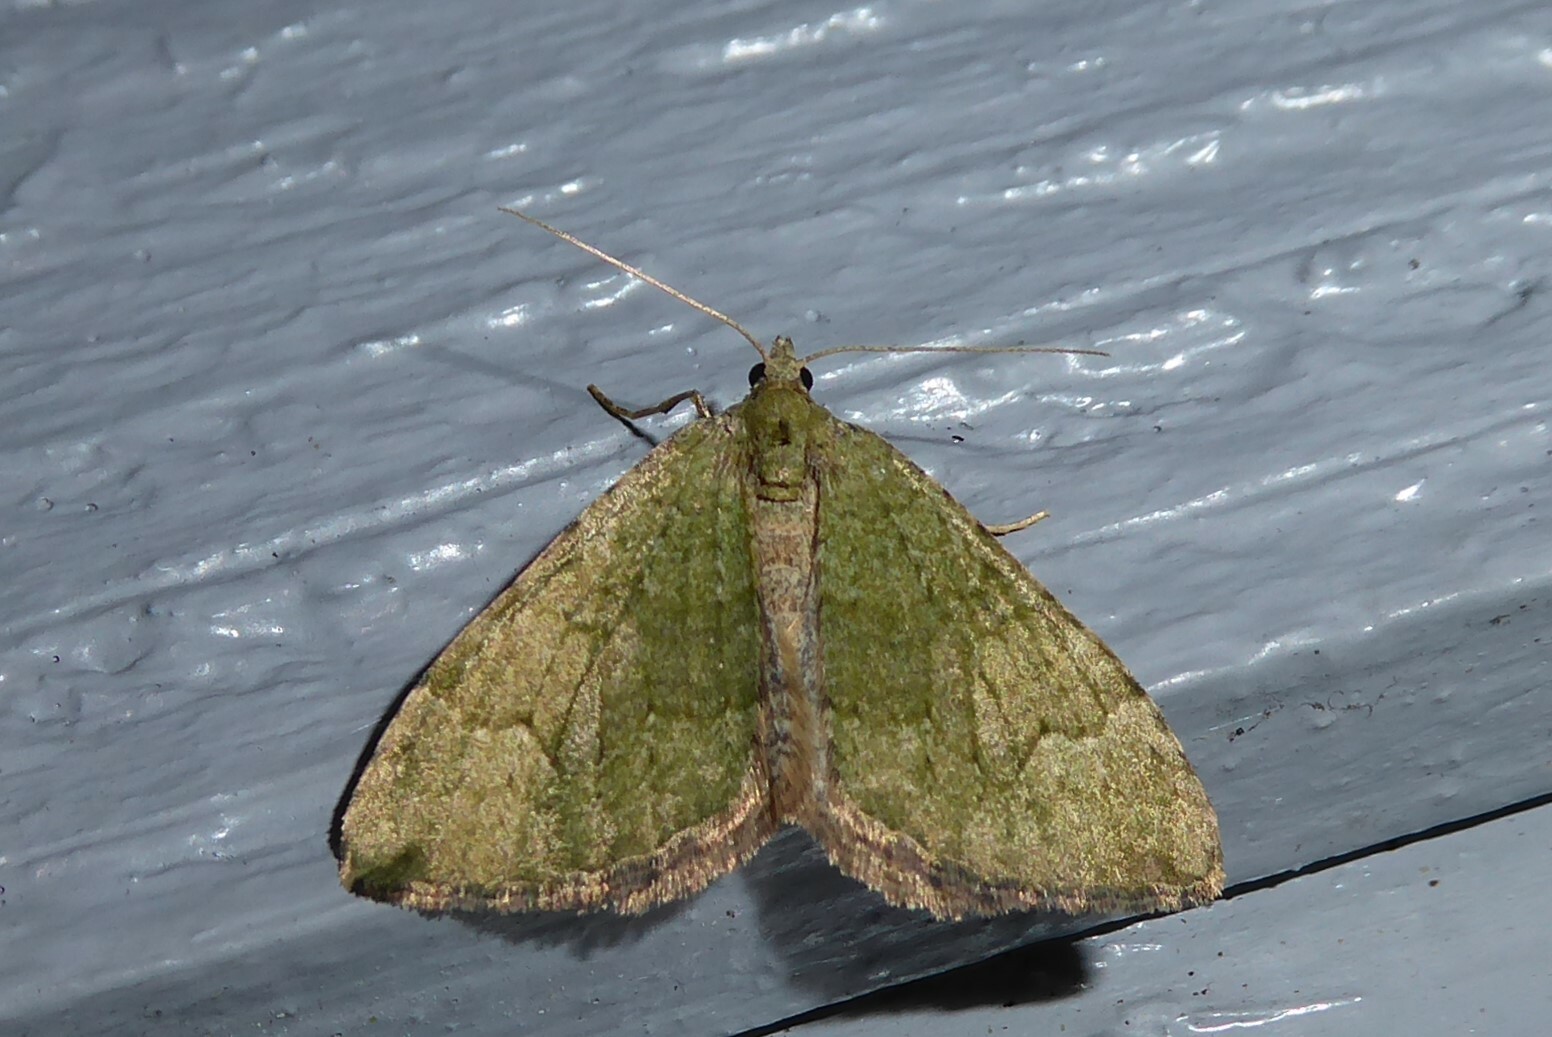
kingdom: Animalia
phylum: Arthropoda
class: Insecta
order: Lepidoptera
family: Geometridae
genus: Epyaxa
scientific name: Epyaxa rosearia
